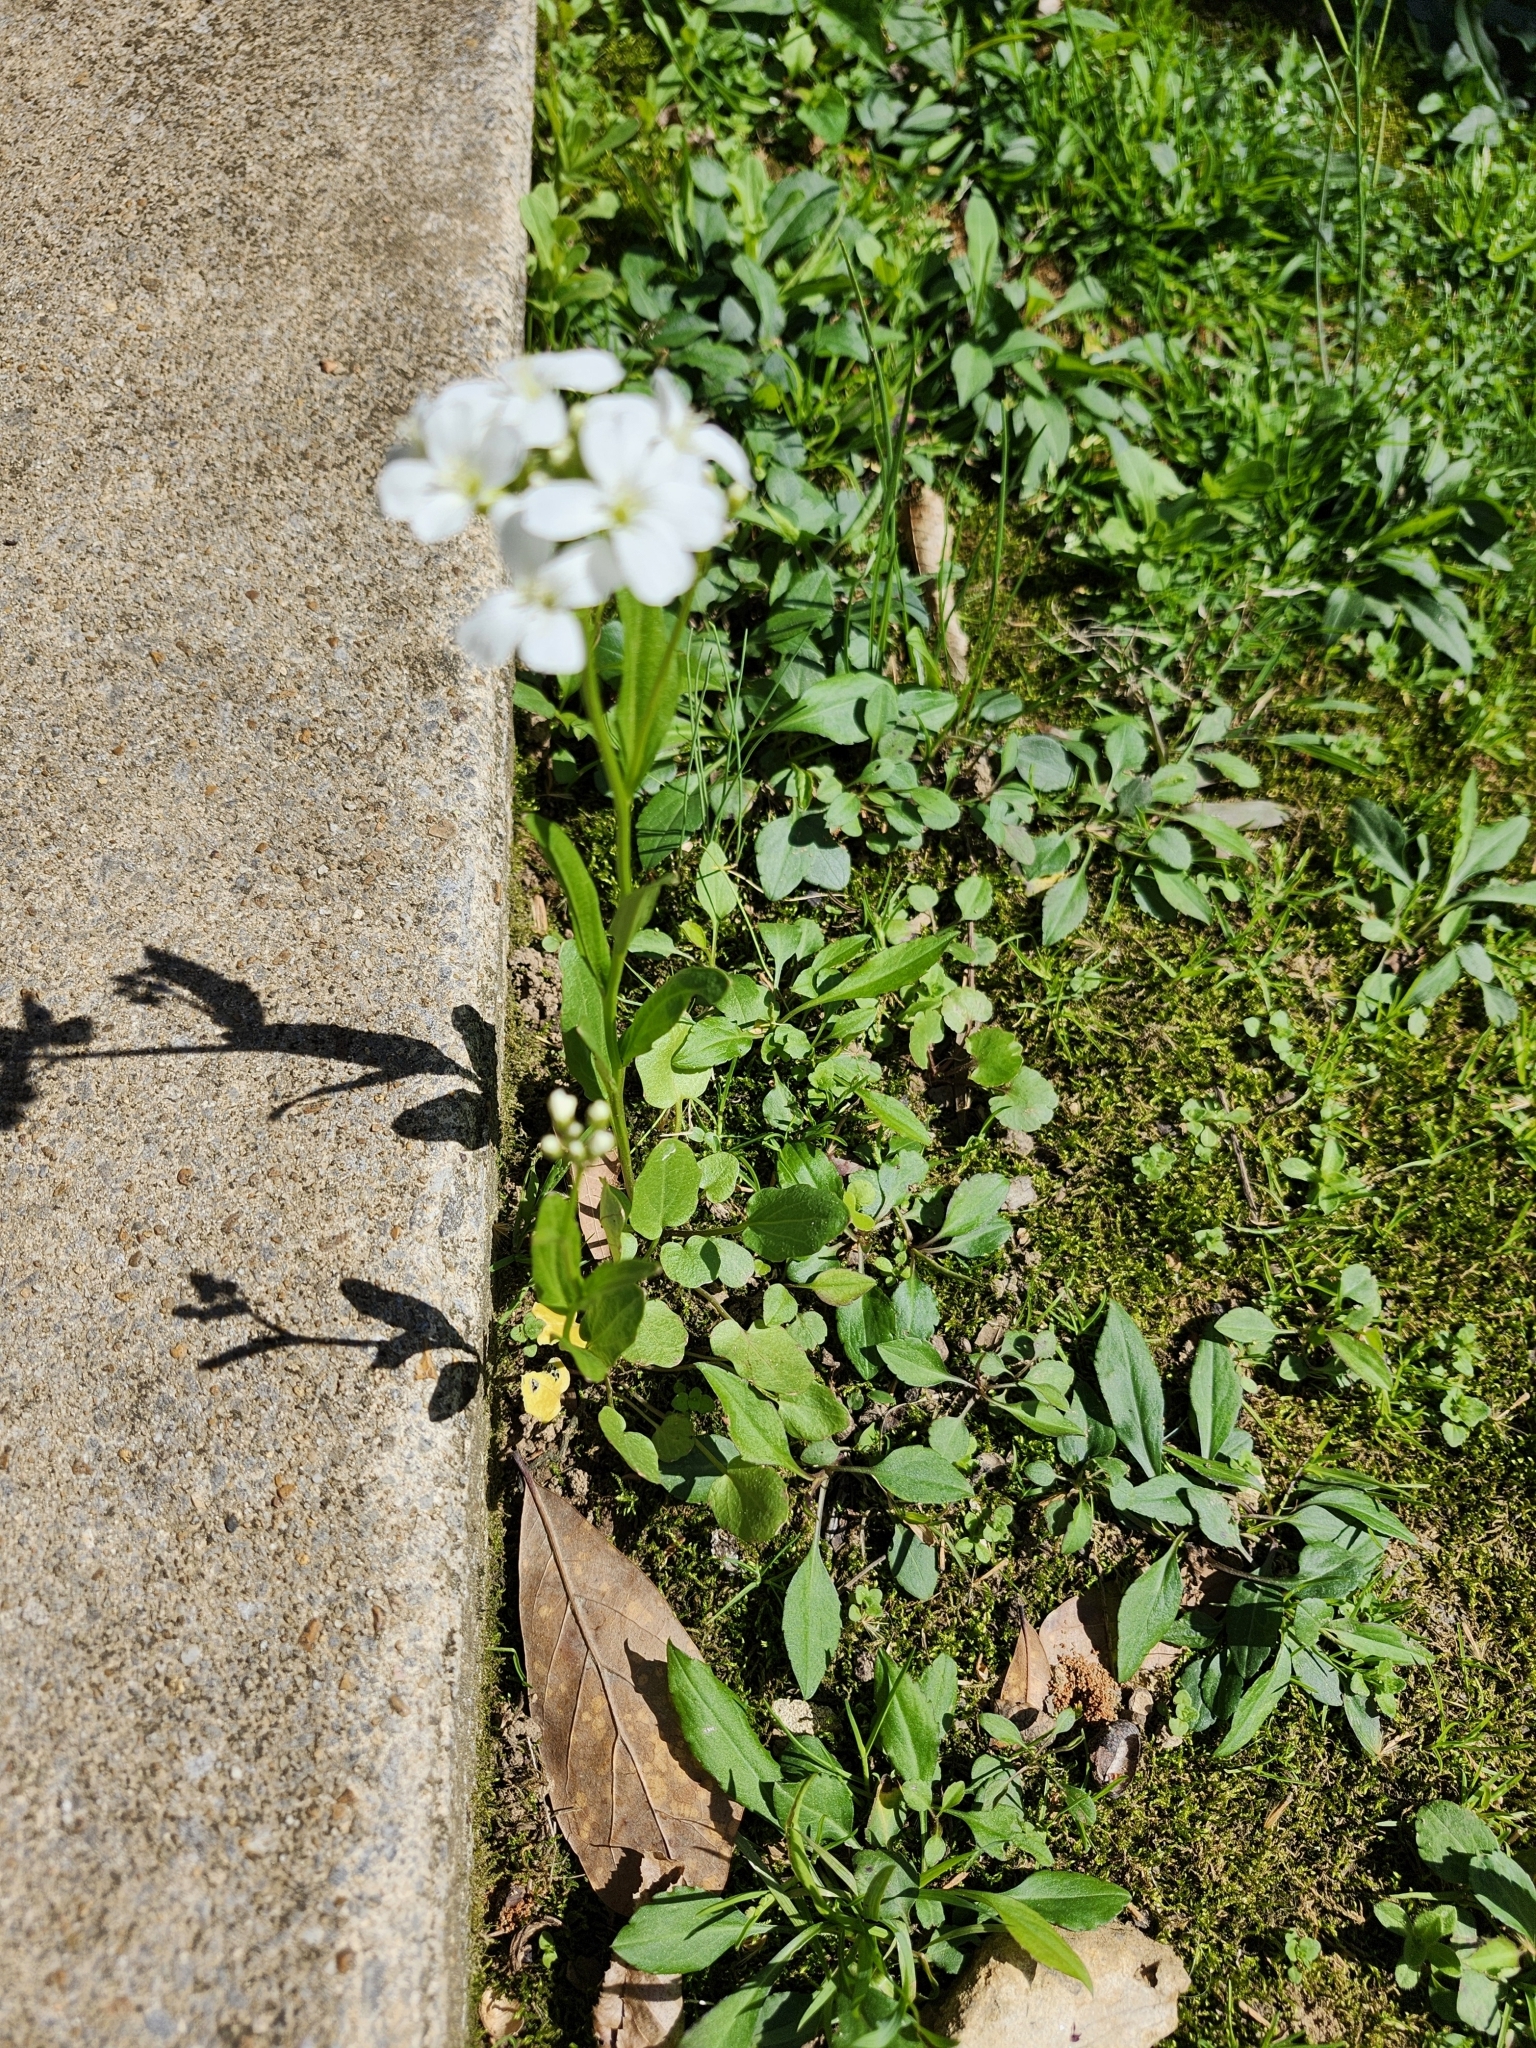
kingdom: Plantae
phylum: Tracheophyta
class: Magnoliopsida
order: Brassicales
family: Brassicaceae
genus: Cardamine
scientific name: Cardamine bulbosa
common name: Spring cress
